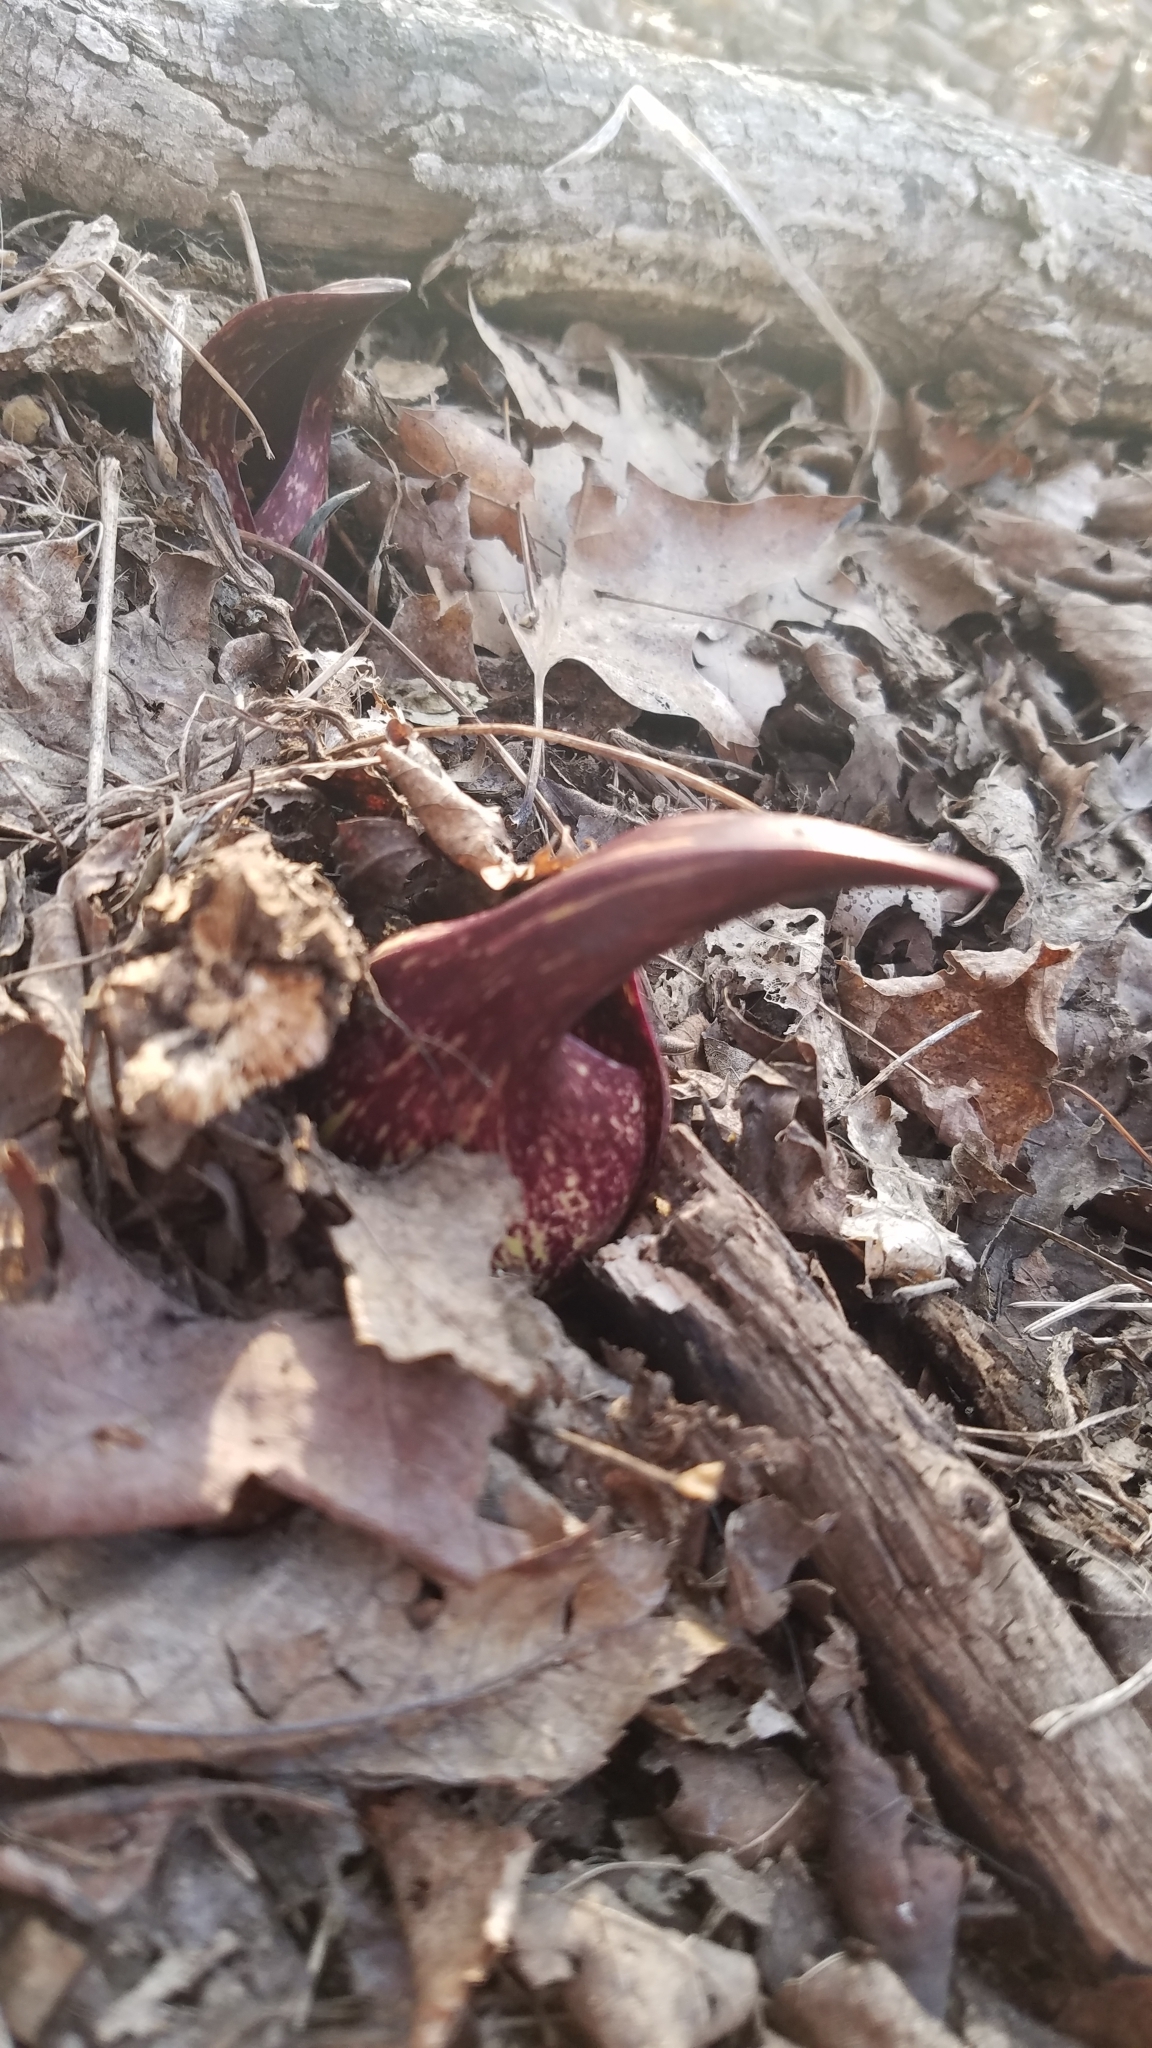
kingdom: Plantae
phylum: Tracheophyta
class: Liliopsida
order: Alismatales
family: Araceae
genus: Symplocarpus
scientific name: Symplocarpus foetidus
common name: Eastern skunk cabbage
